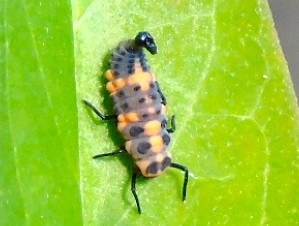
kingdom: Animalia
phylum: Arthropoda
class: Insecta
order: Coleoptera
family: Coccinellidae
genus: Coccinellina
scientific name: Coccinellina
